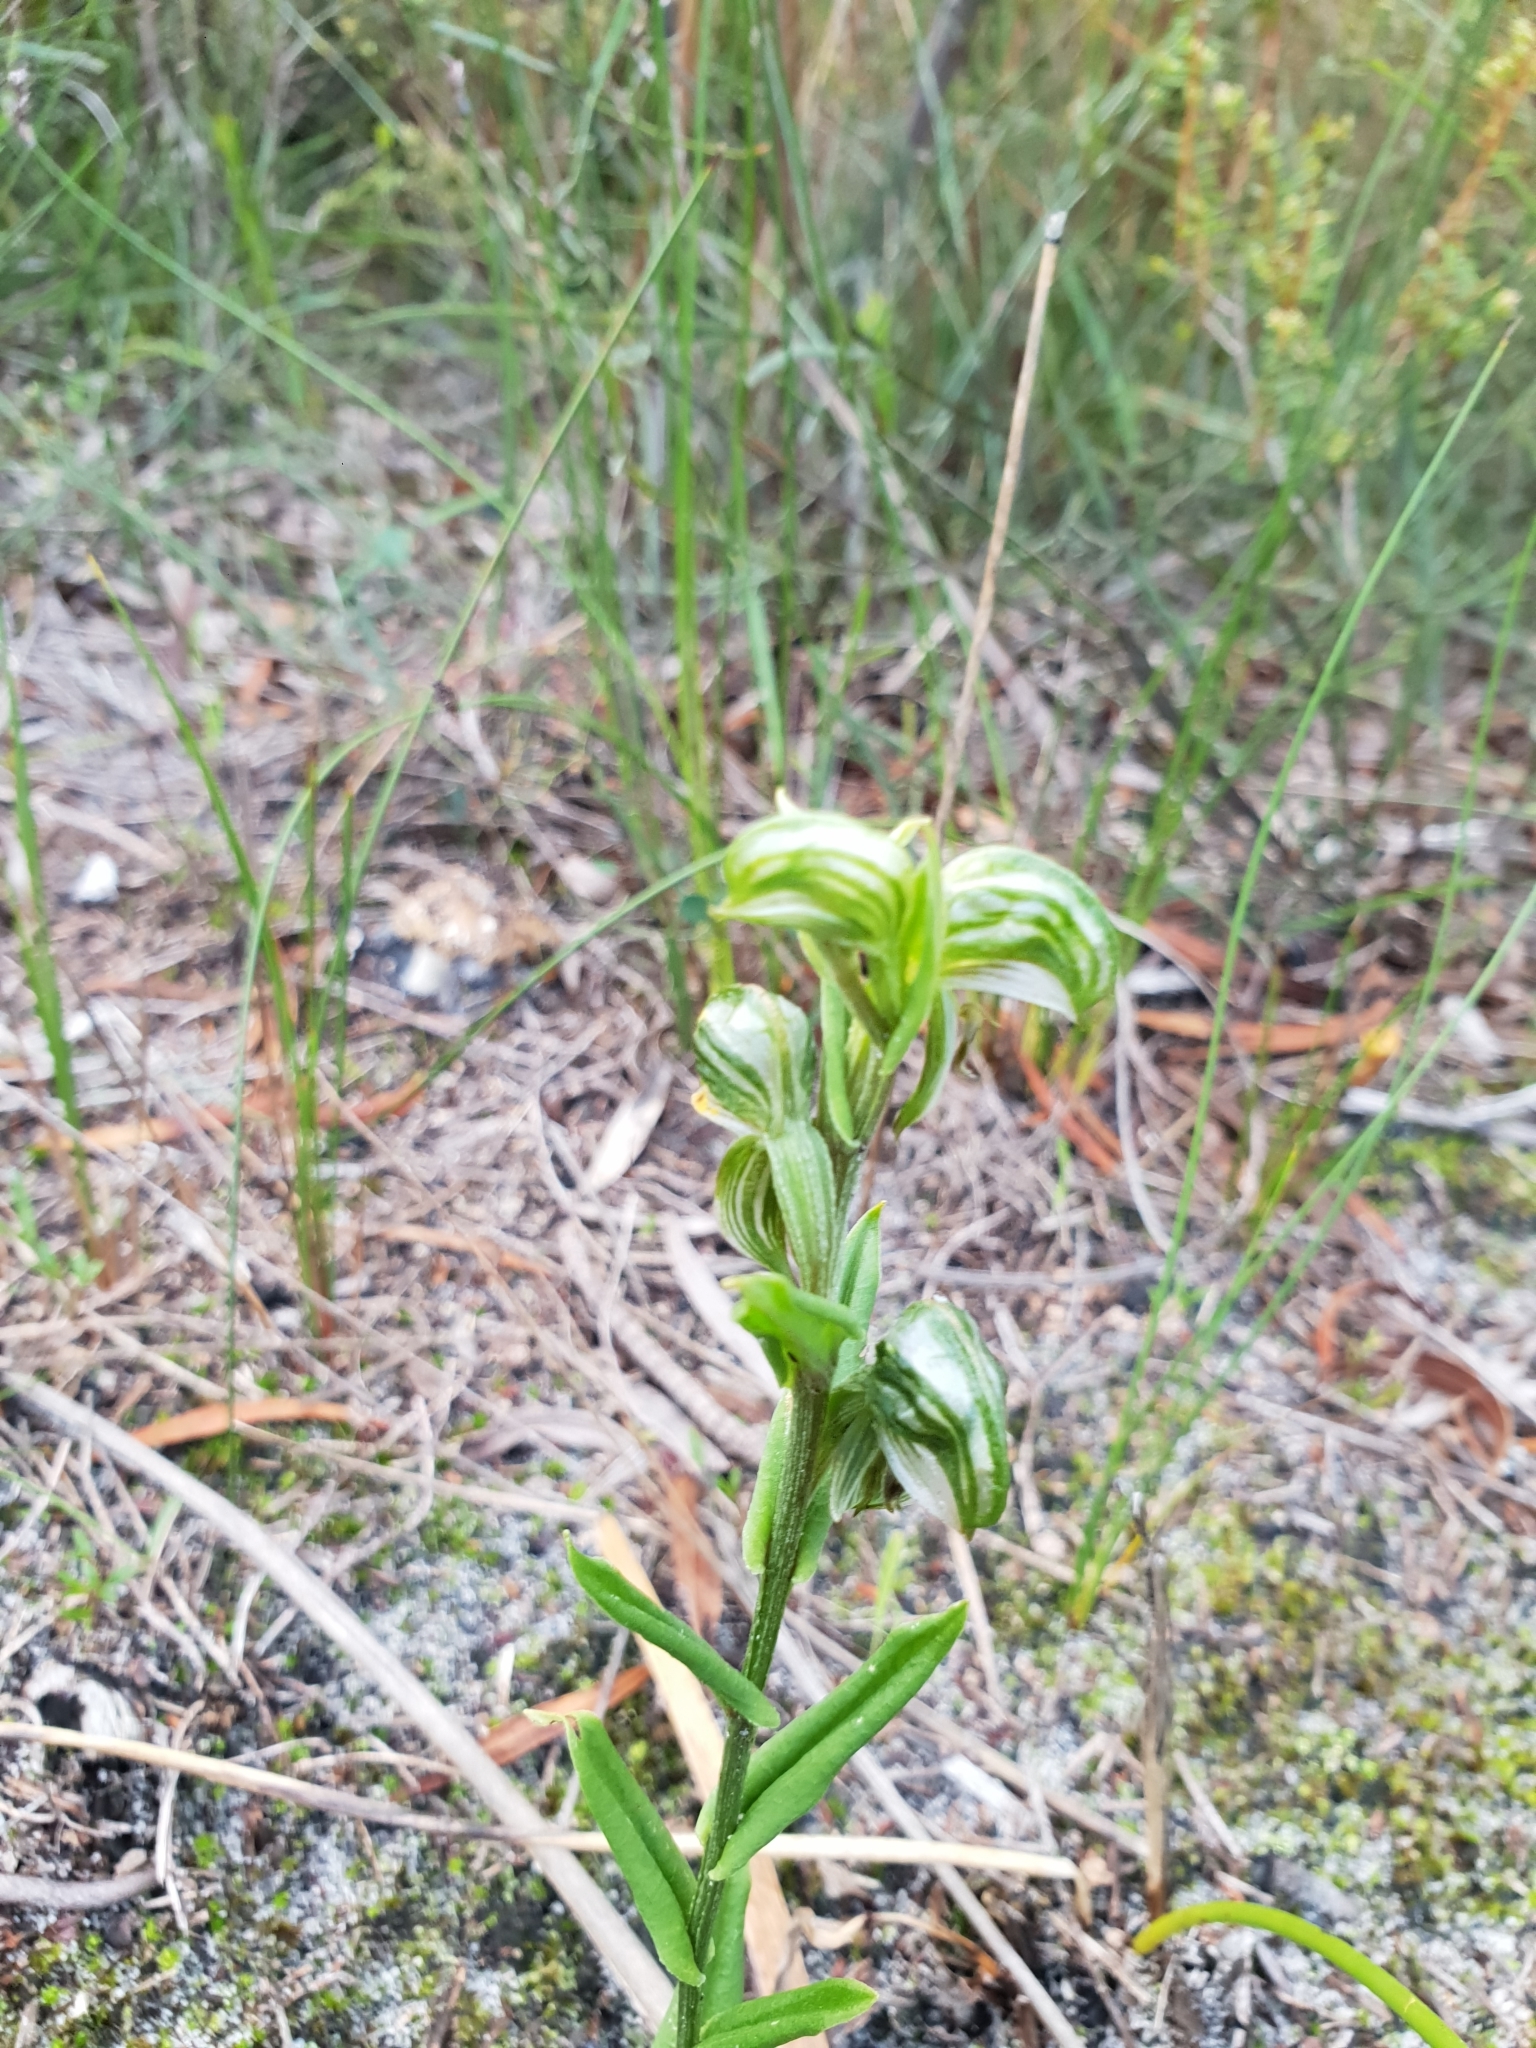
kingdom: Plantae
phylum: Tracheophyta
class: Liliopsida
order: Asparagales
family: Orchidaceae
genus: Pterostylis
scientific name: Pterostylis vittata
